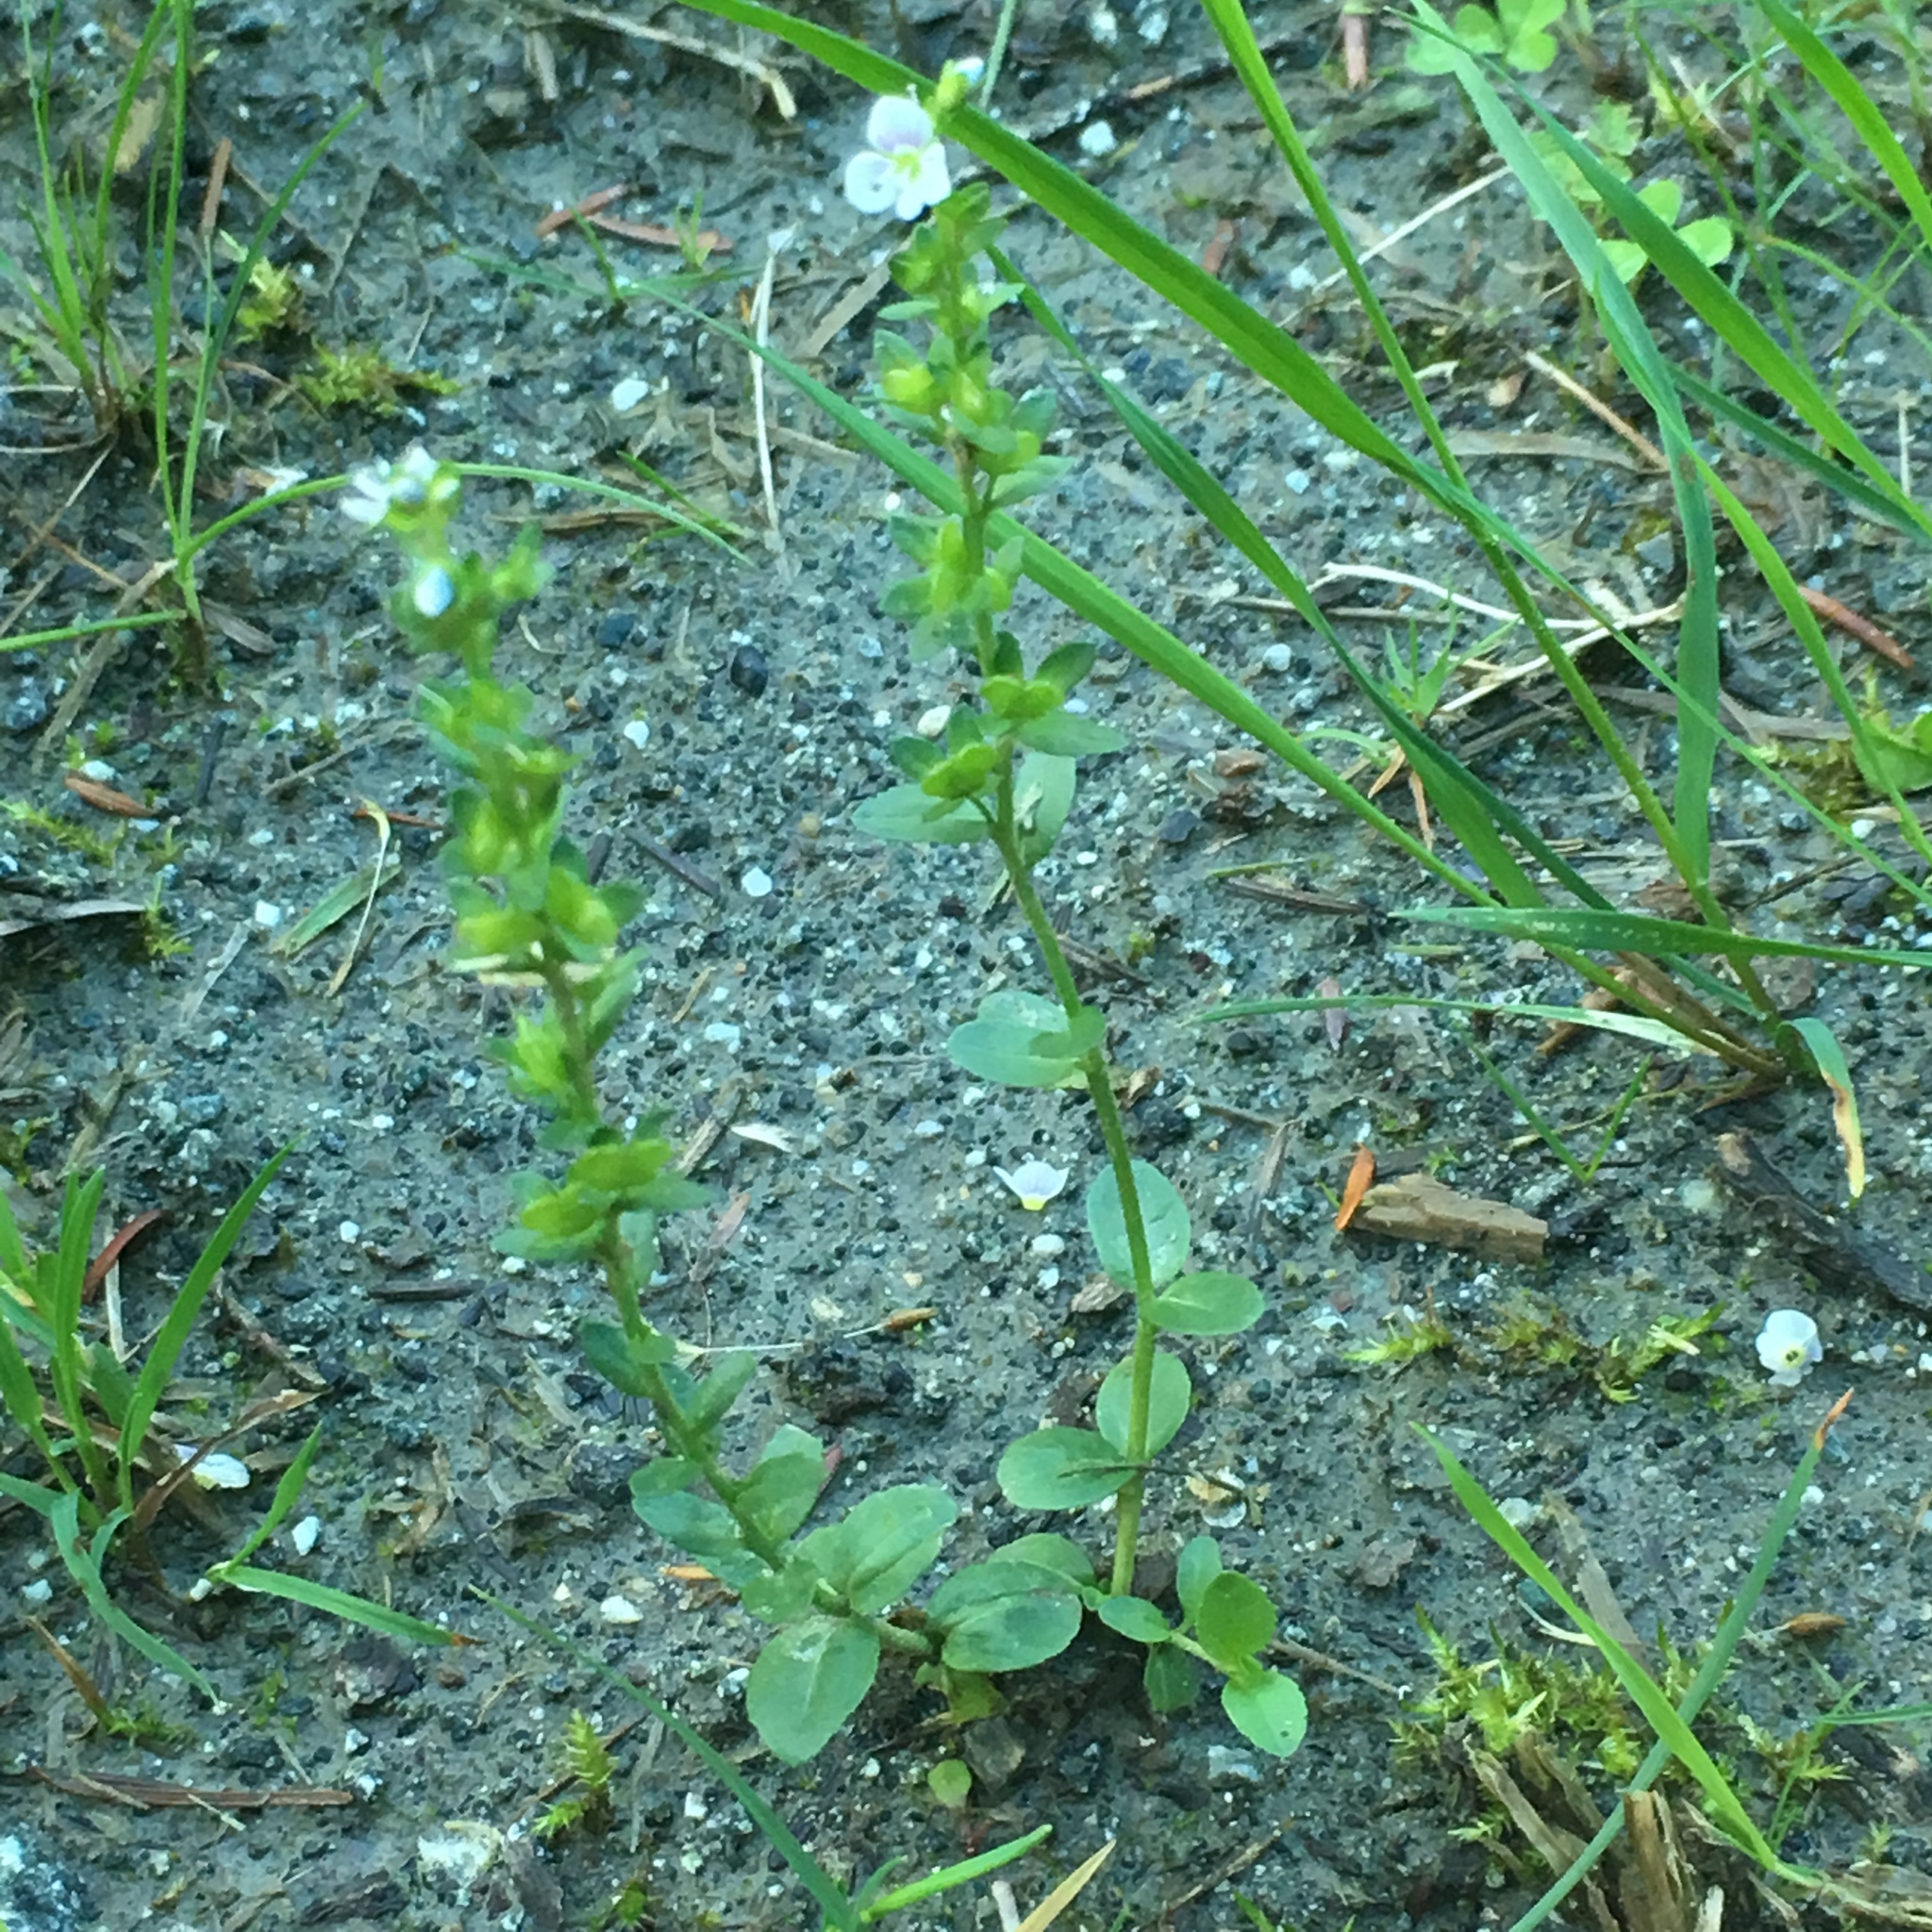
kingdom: Plantae
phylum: Tracheophyta
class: Magnoliopsida
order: Lamiales
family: Plantaginaceae
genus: Veronica
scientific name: Veronica serpyllifolia
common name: Thyme-leaved speedwell
